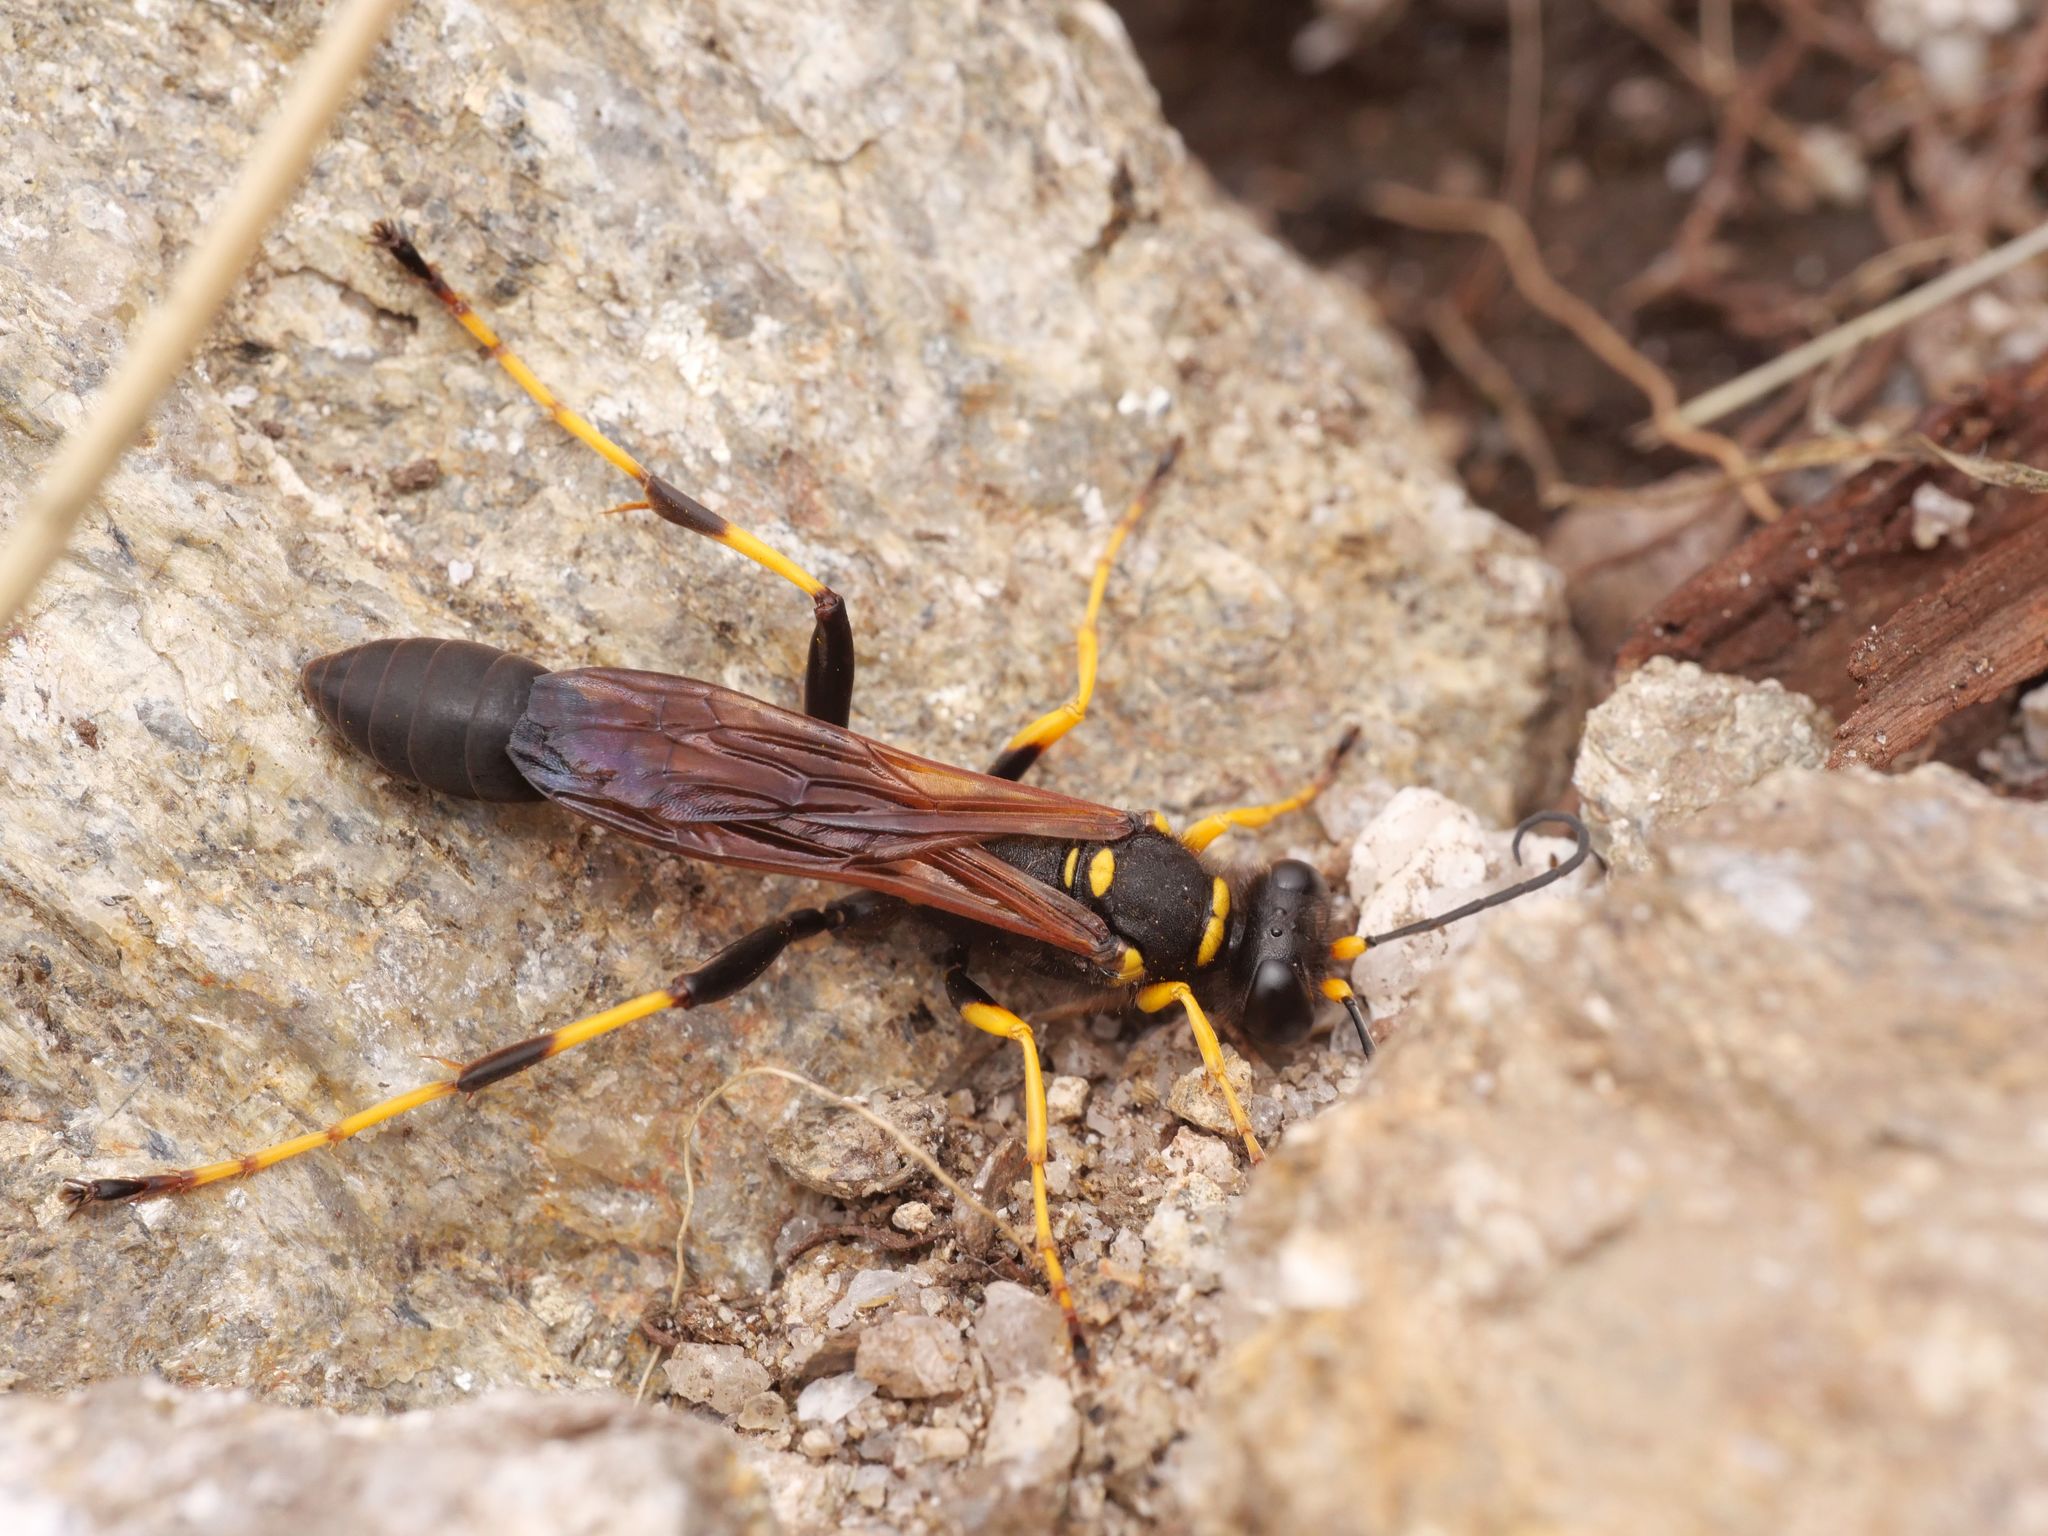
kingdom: Animalia
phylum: Arthropoda
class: Insecta
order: Hymenoptera
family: Sphecidae
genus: Sceliphron
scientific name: Sceliphron caementarium
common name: Mud dauber
